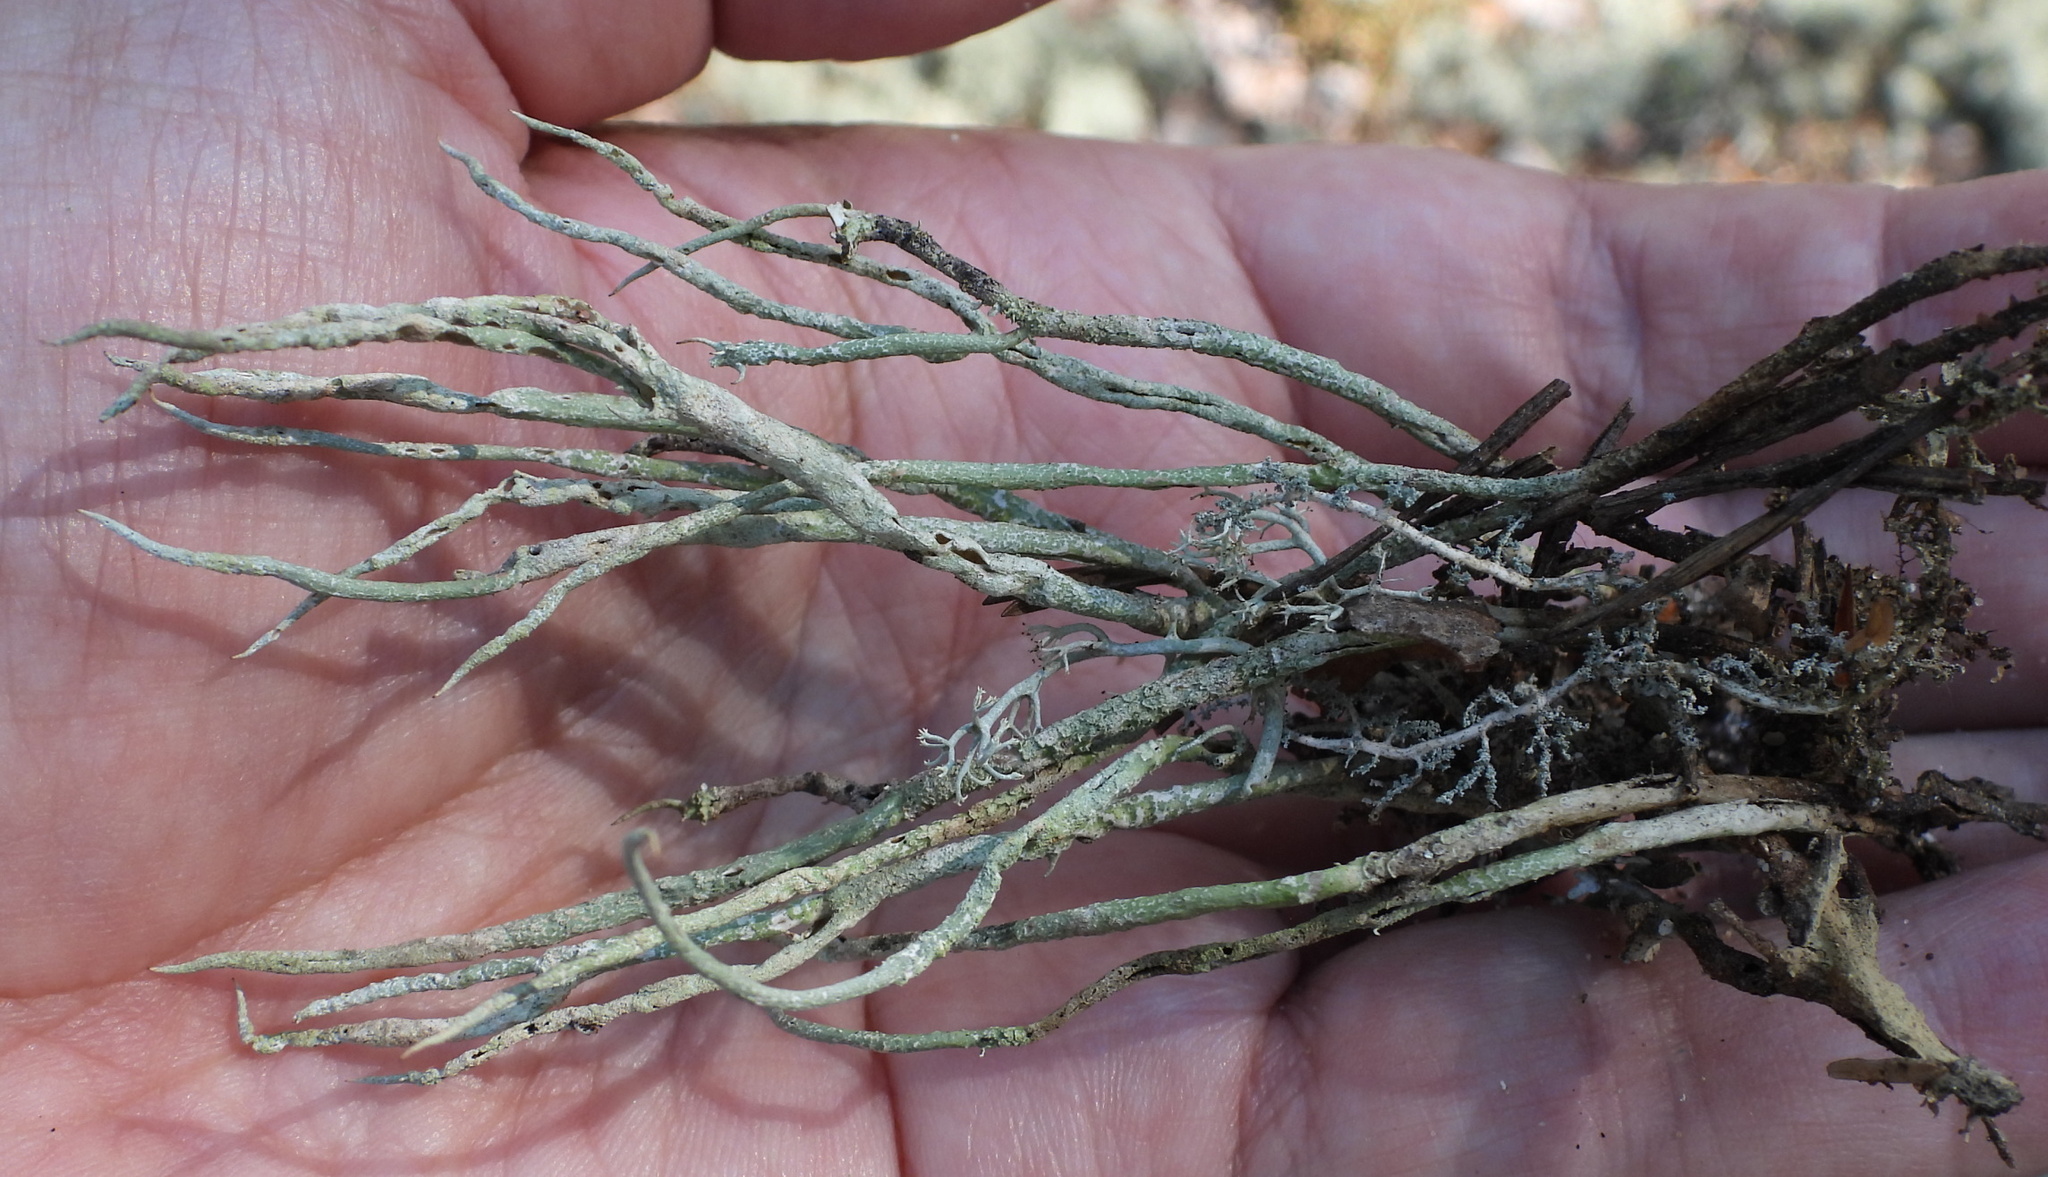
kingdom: Fungi
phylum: Ascomycota
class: Lecanoromycetes
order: Lecanorales
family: Cladoniaceae
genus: Cladonia
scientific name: Cladonia cornuta
